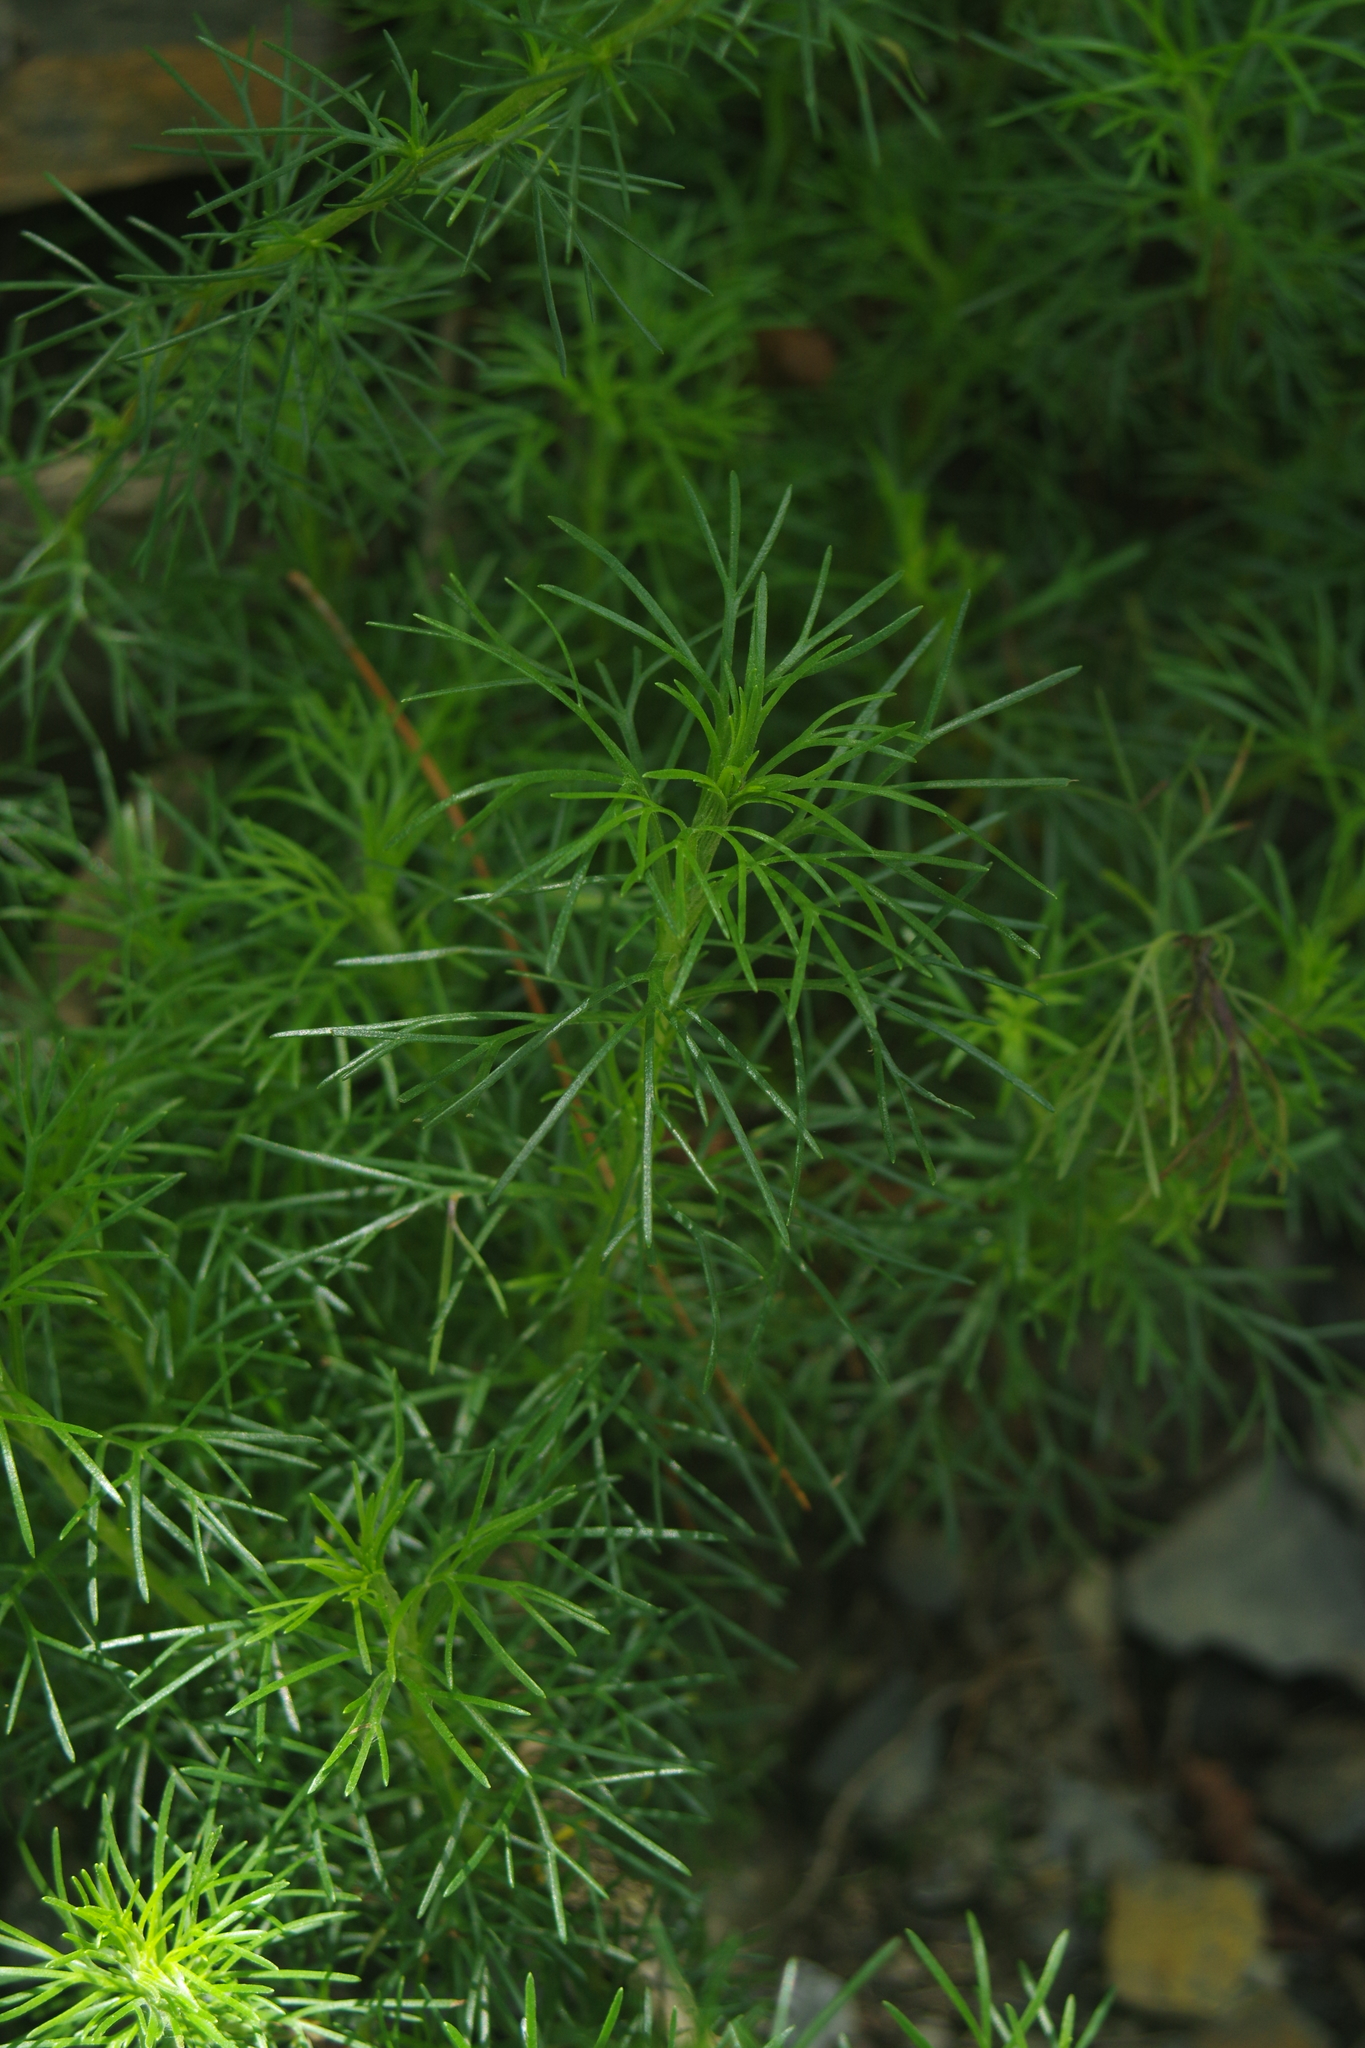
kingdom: Plantae
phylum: Tracheophyta
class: Magnoliopsida
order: Asterales
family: Asteraceae
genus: Artemisia
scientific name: Artemisia capillaris
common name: Yin-chen wormwood
